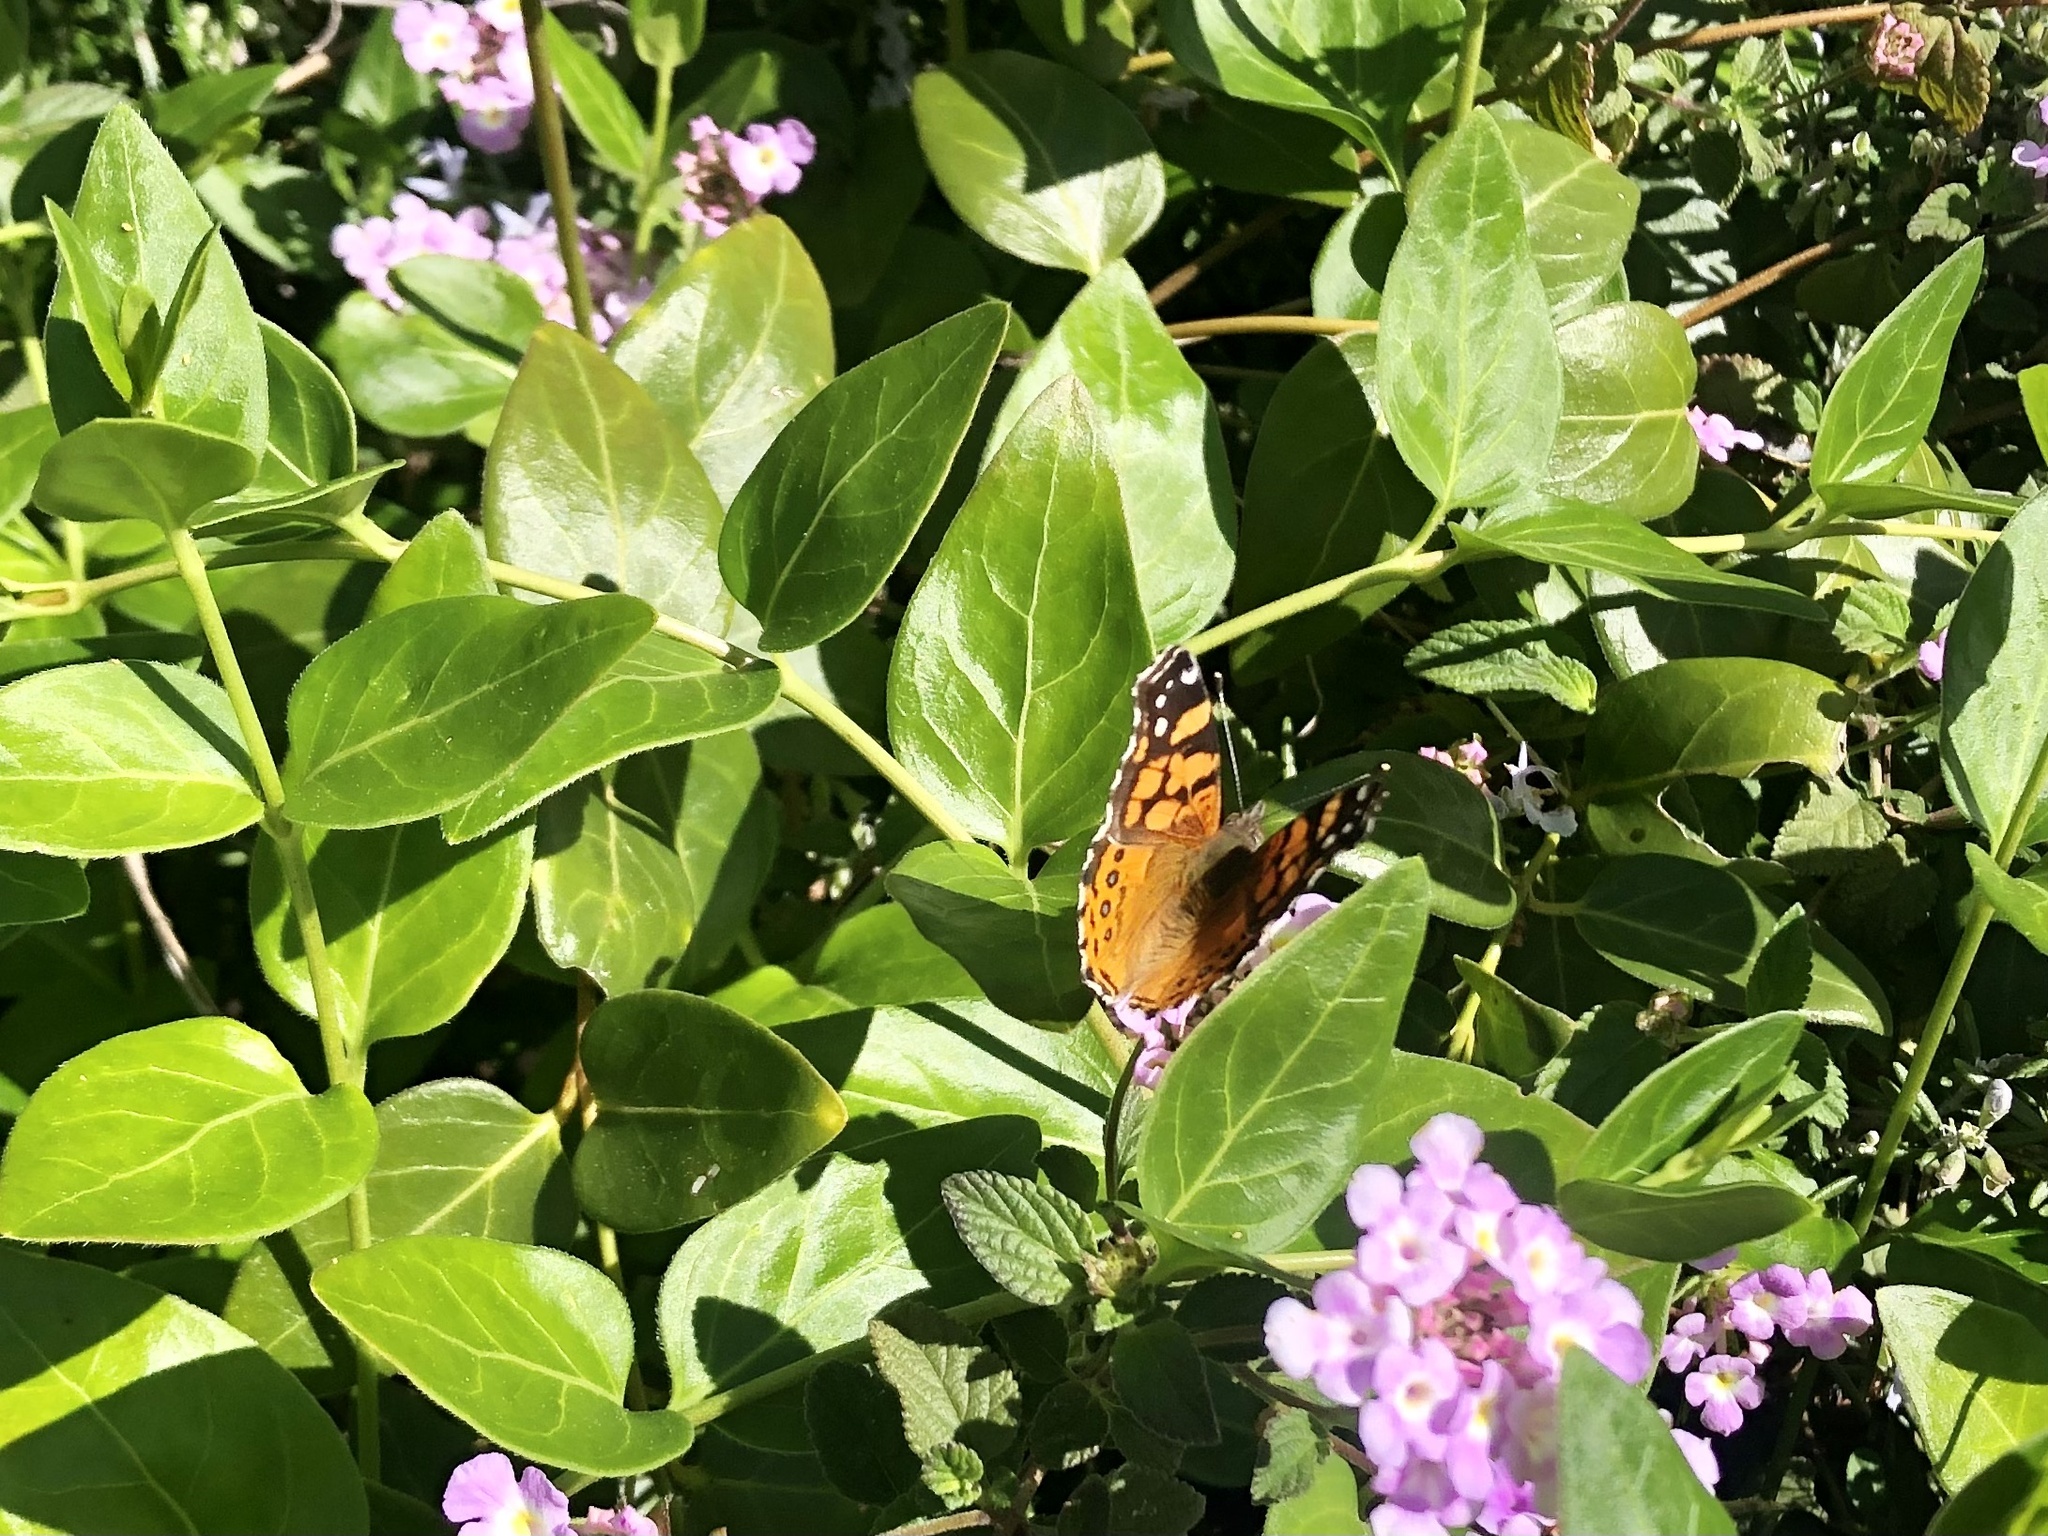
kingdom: Animalia
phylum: Arthropoda
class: Insecta
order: Lepidoptera
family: Nymphalidae
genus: Vanessa
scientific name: Vanessa annabella
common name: West coast lady
